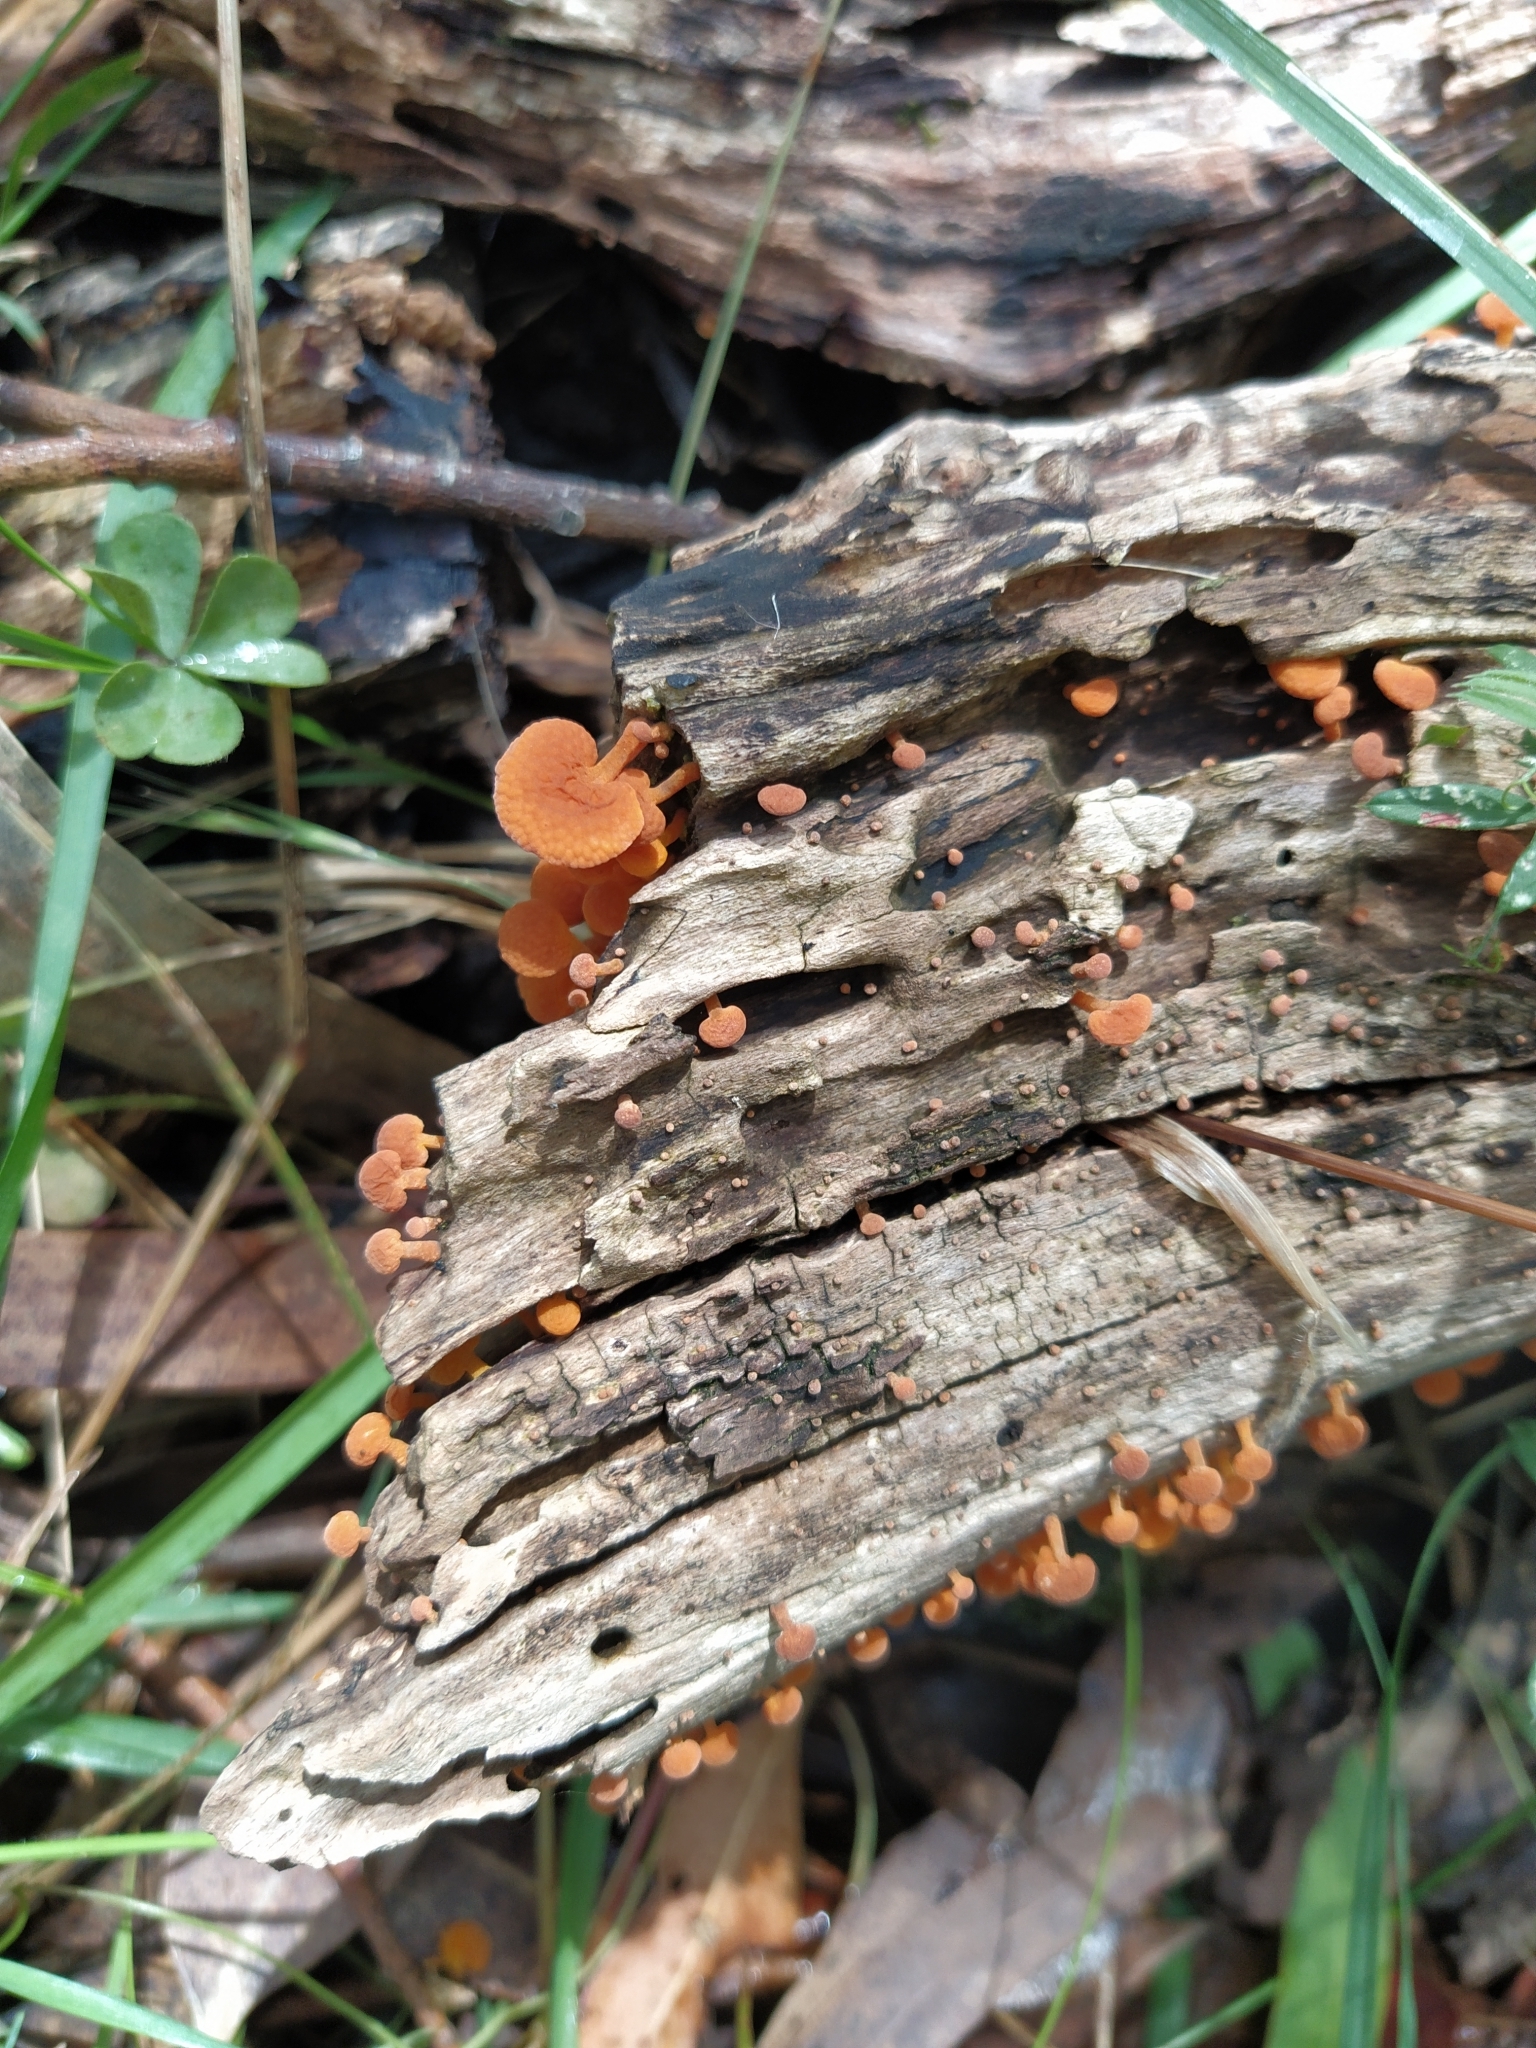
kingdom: Fungi
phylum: Basidiomycota
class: Agaricomycetes
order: Agaricales
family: Mycenaceae
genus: Favolaschia
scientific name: Favolaschia claudopus
